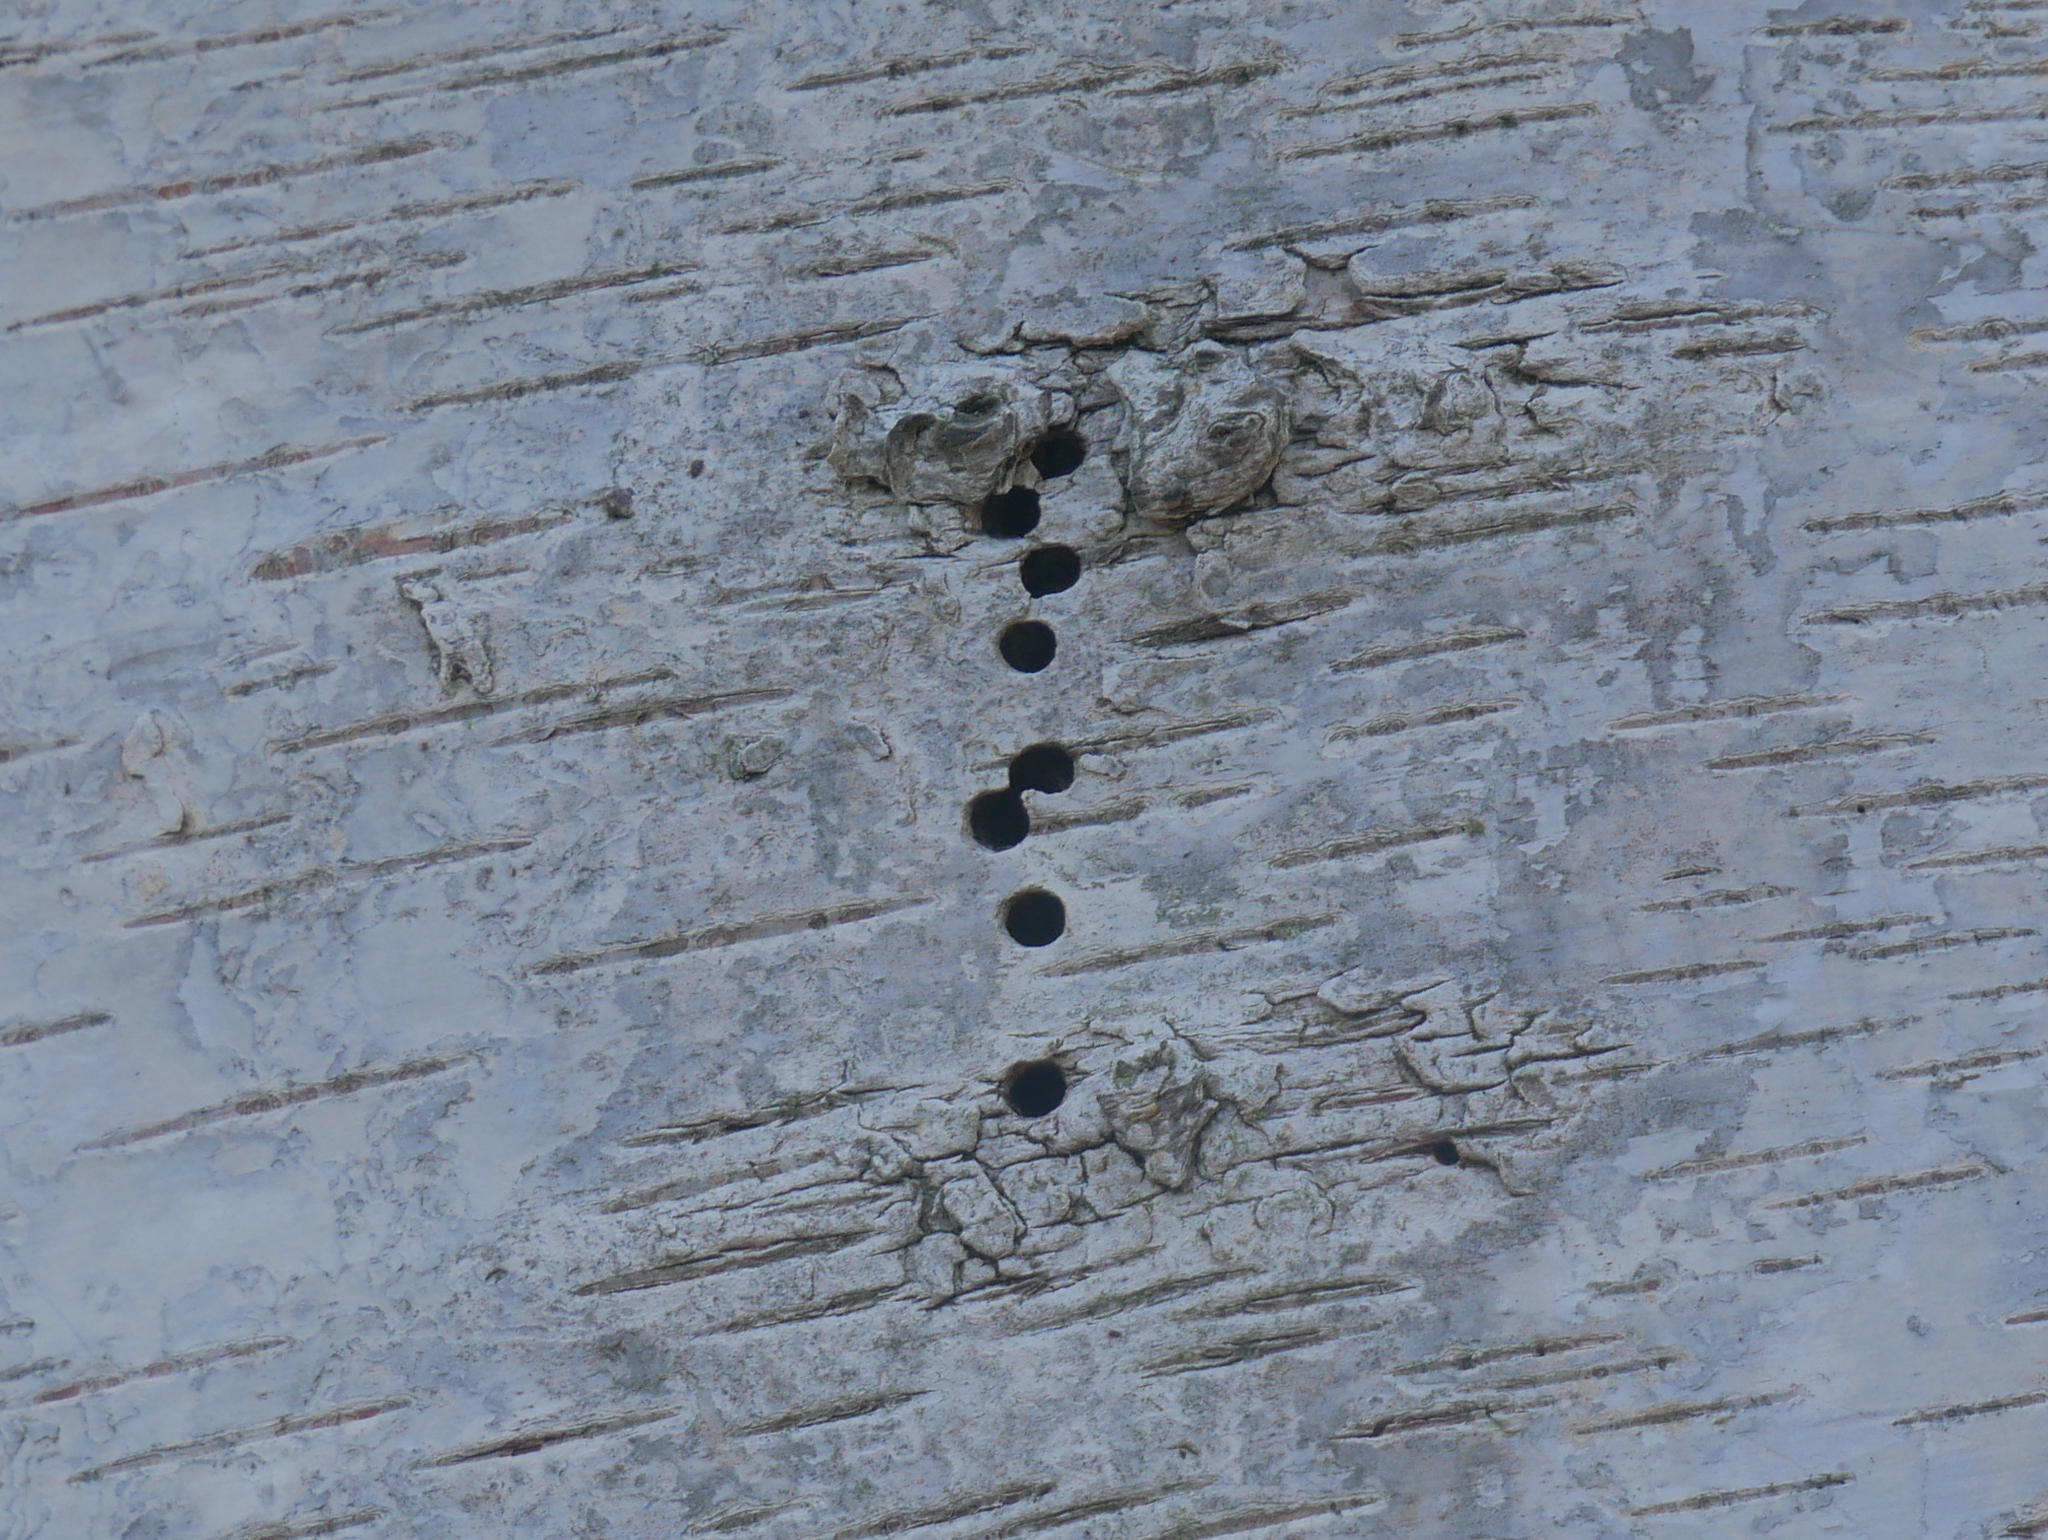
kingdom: Animalia
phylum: Arthropoda
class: Insecta
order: Coleoptera
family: Curculionidae
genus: Scolytus
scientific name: Scolytus ratzeburgii
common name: Birch bark beetle
